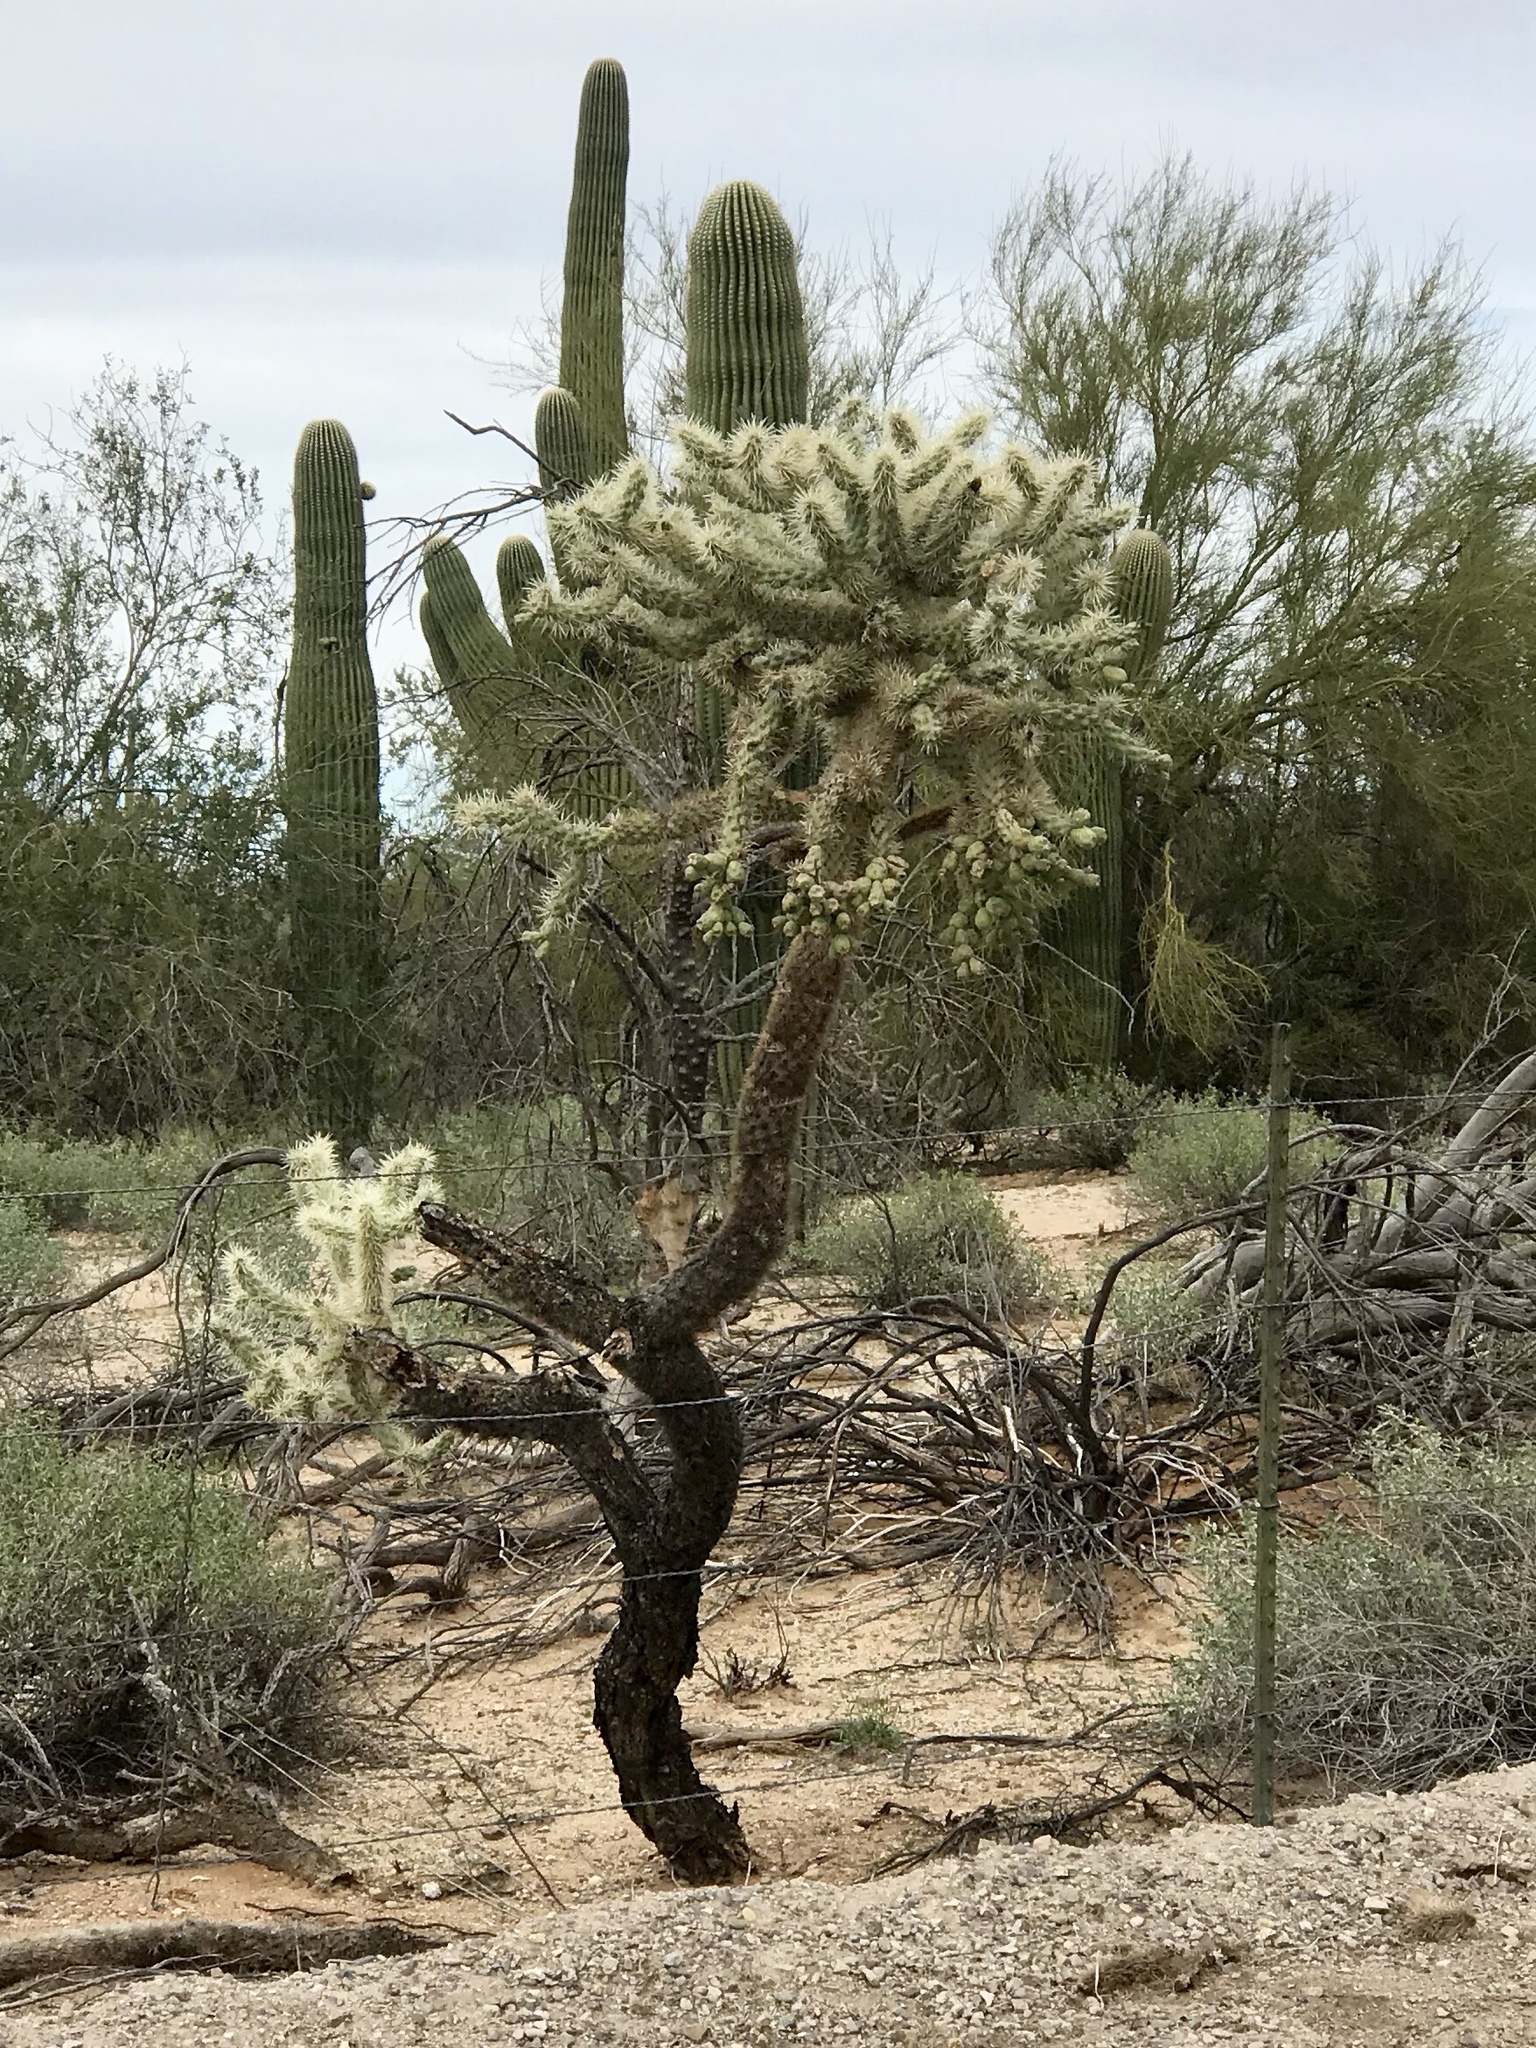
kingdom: Plantae
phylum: Tracheophyta
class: Magnoliopsida
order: Caryophyllales
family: Cactaceae
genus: Cylindropuntia
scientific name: Cylindropuntia fulgida
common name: Jumping cholla
